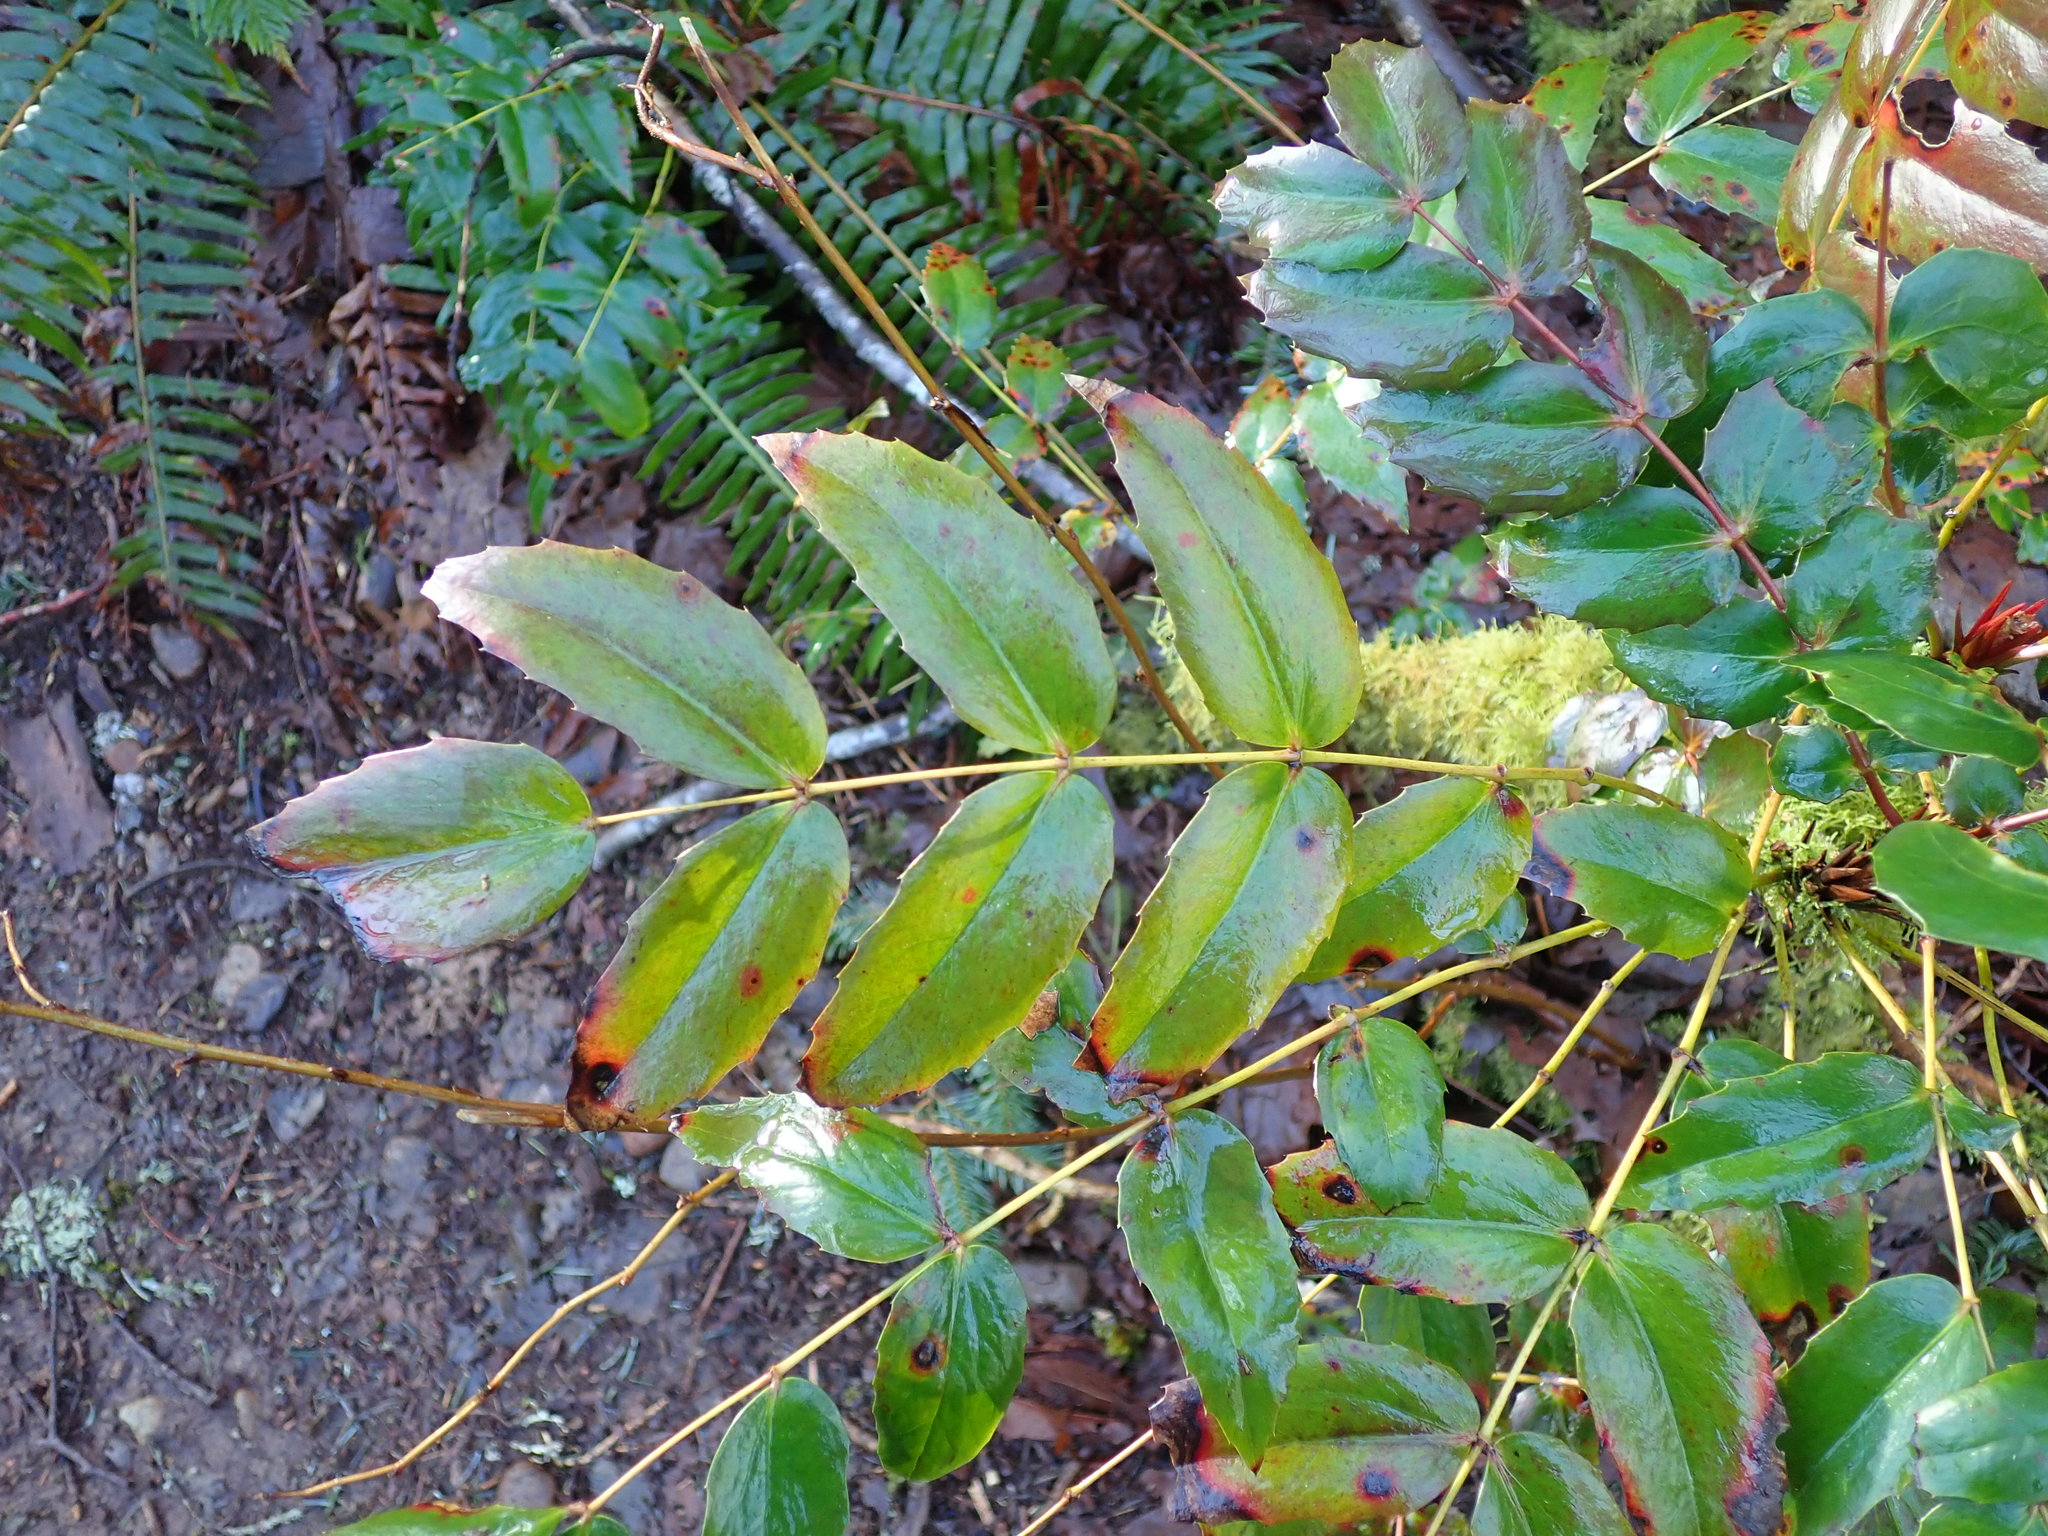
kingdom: Plantae
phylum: Tracheophyta
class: Magnoliopsida
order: Ranunculales
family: Berberidaceae
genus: Mahonia
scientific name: Mahonia nervosa
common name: Cascade oregon-grape
